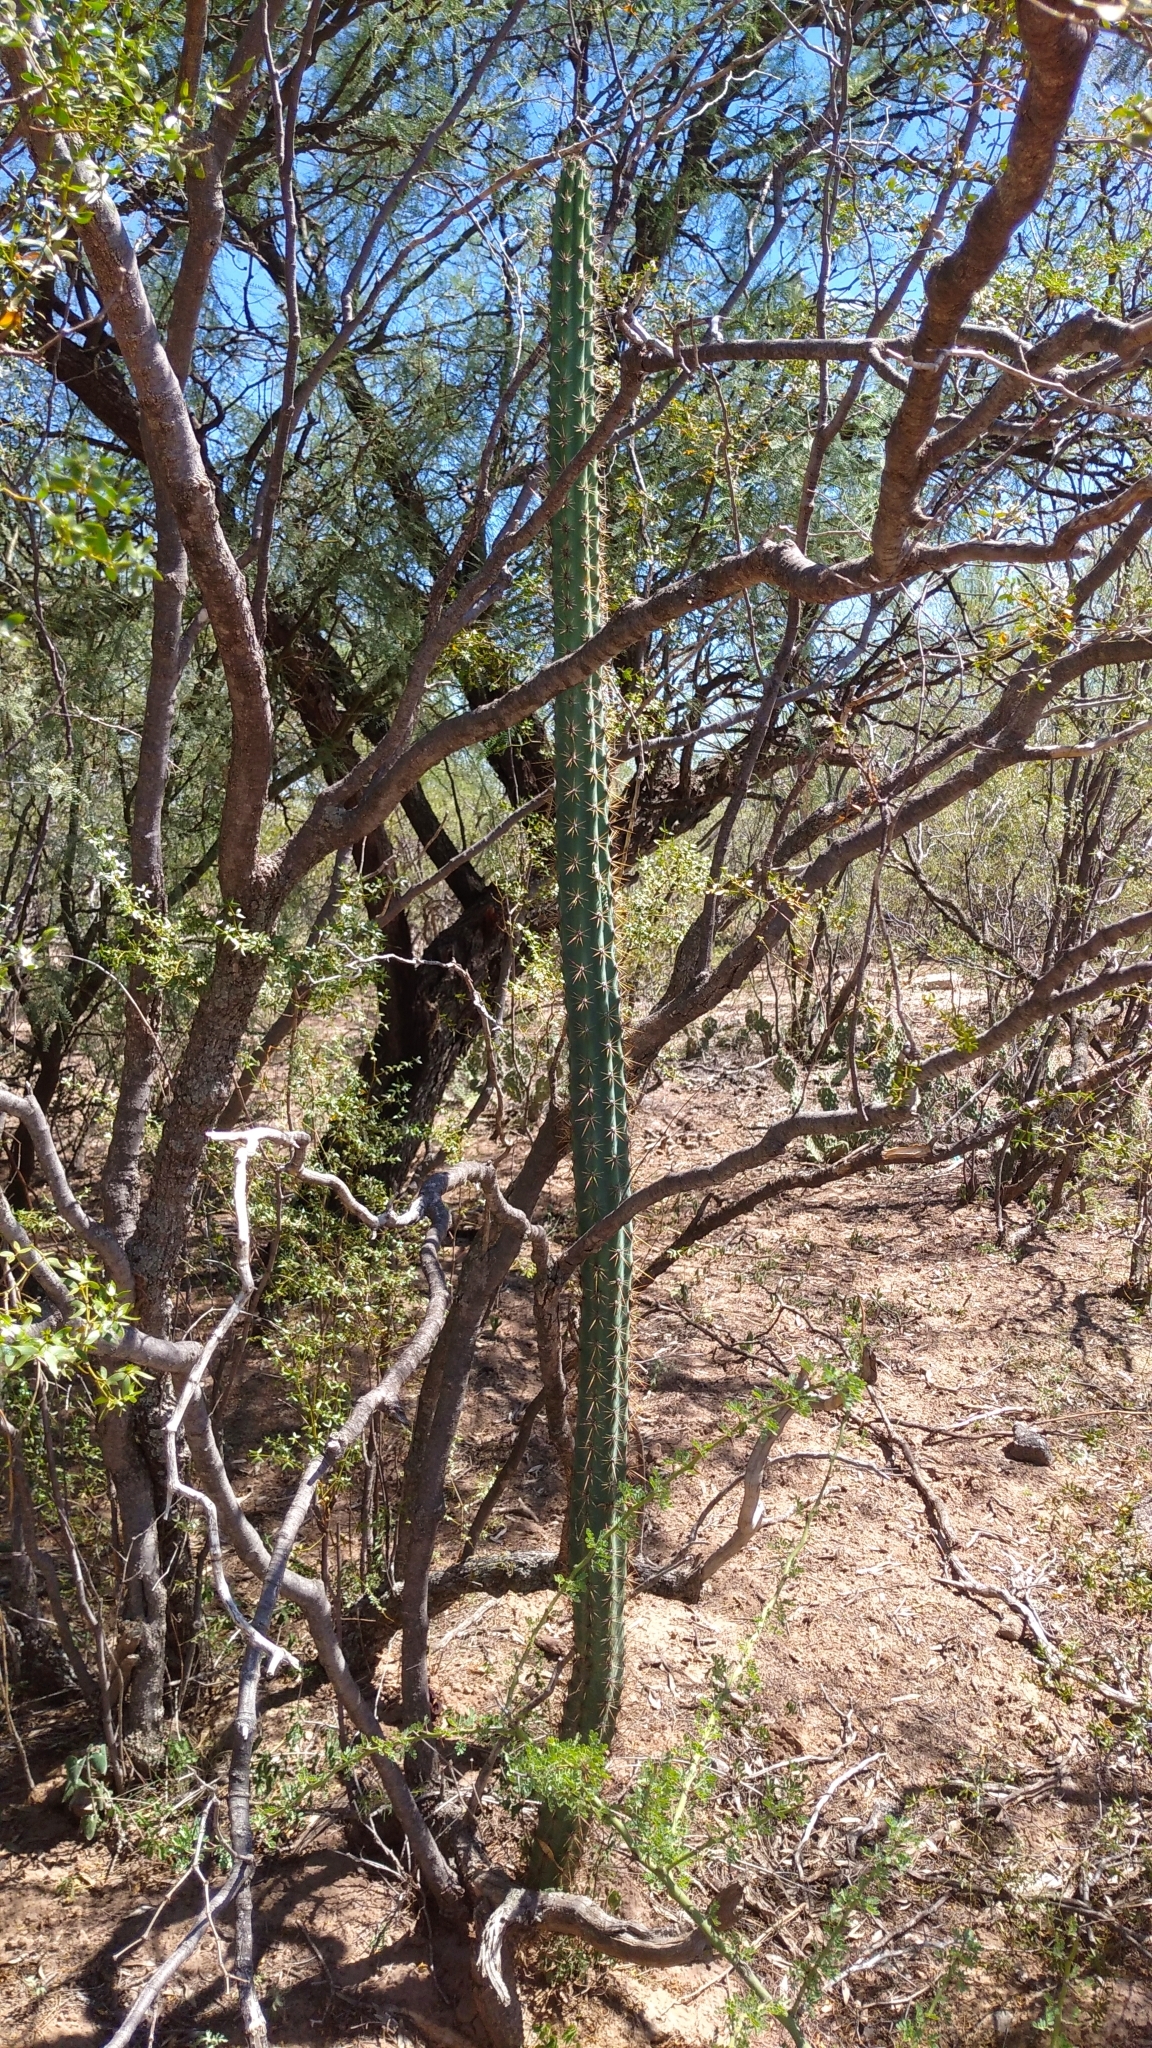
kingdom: Plantae
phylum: Tracheophyta
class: Magnoliopsida
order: Caryophyllales
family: Cactaceae
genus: Cereus
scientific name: Cereus aethiops
